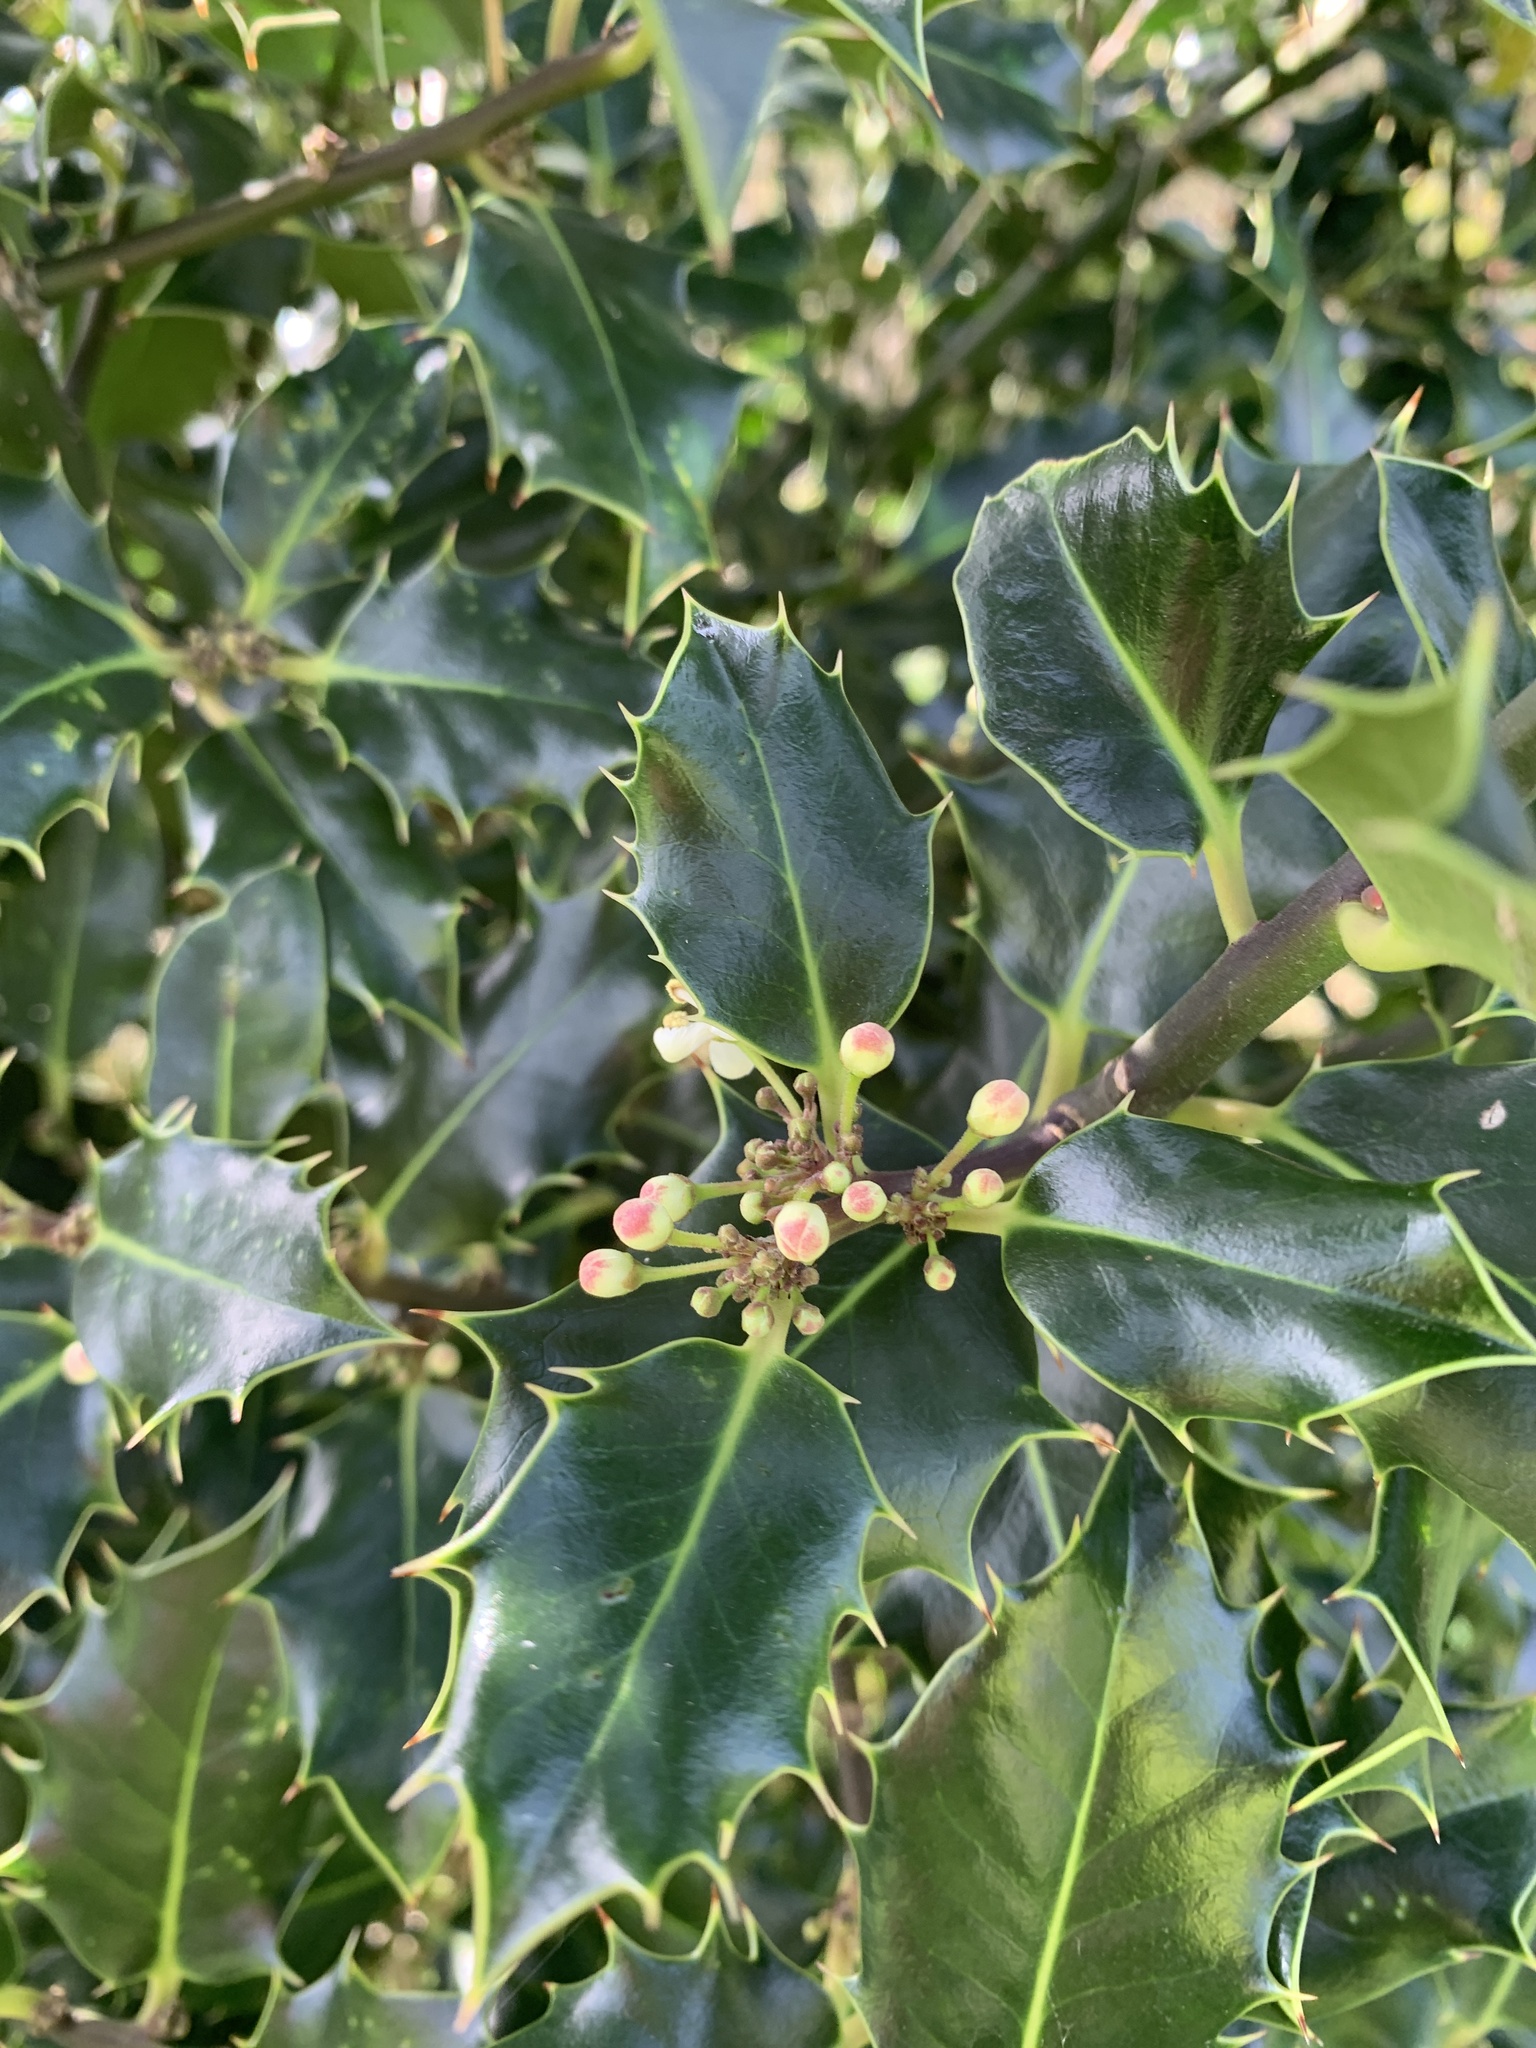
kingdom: Plantae
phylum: Tracheophyta
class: Magnoliopsida
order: Aquifoliales
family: Aquifoliaceae
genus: Ilex
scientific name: Ilex aquifolium
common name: English holly
